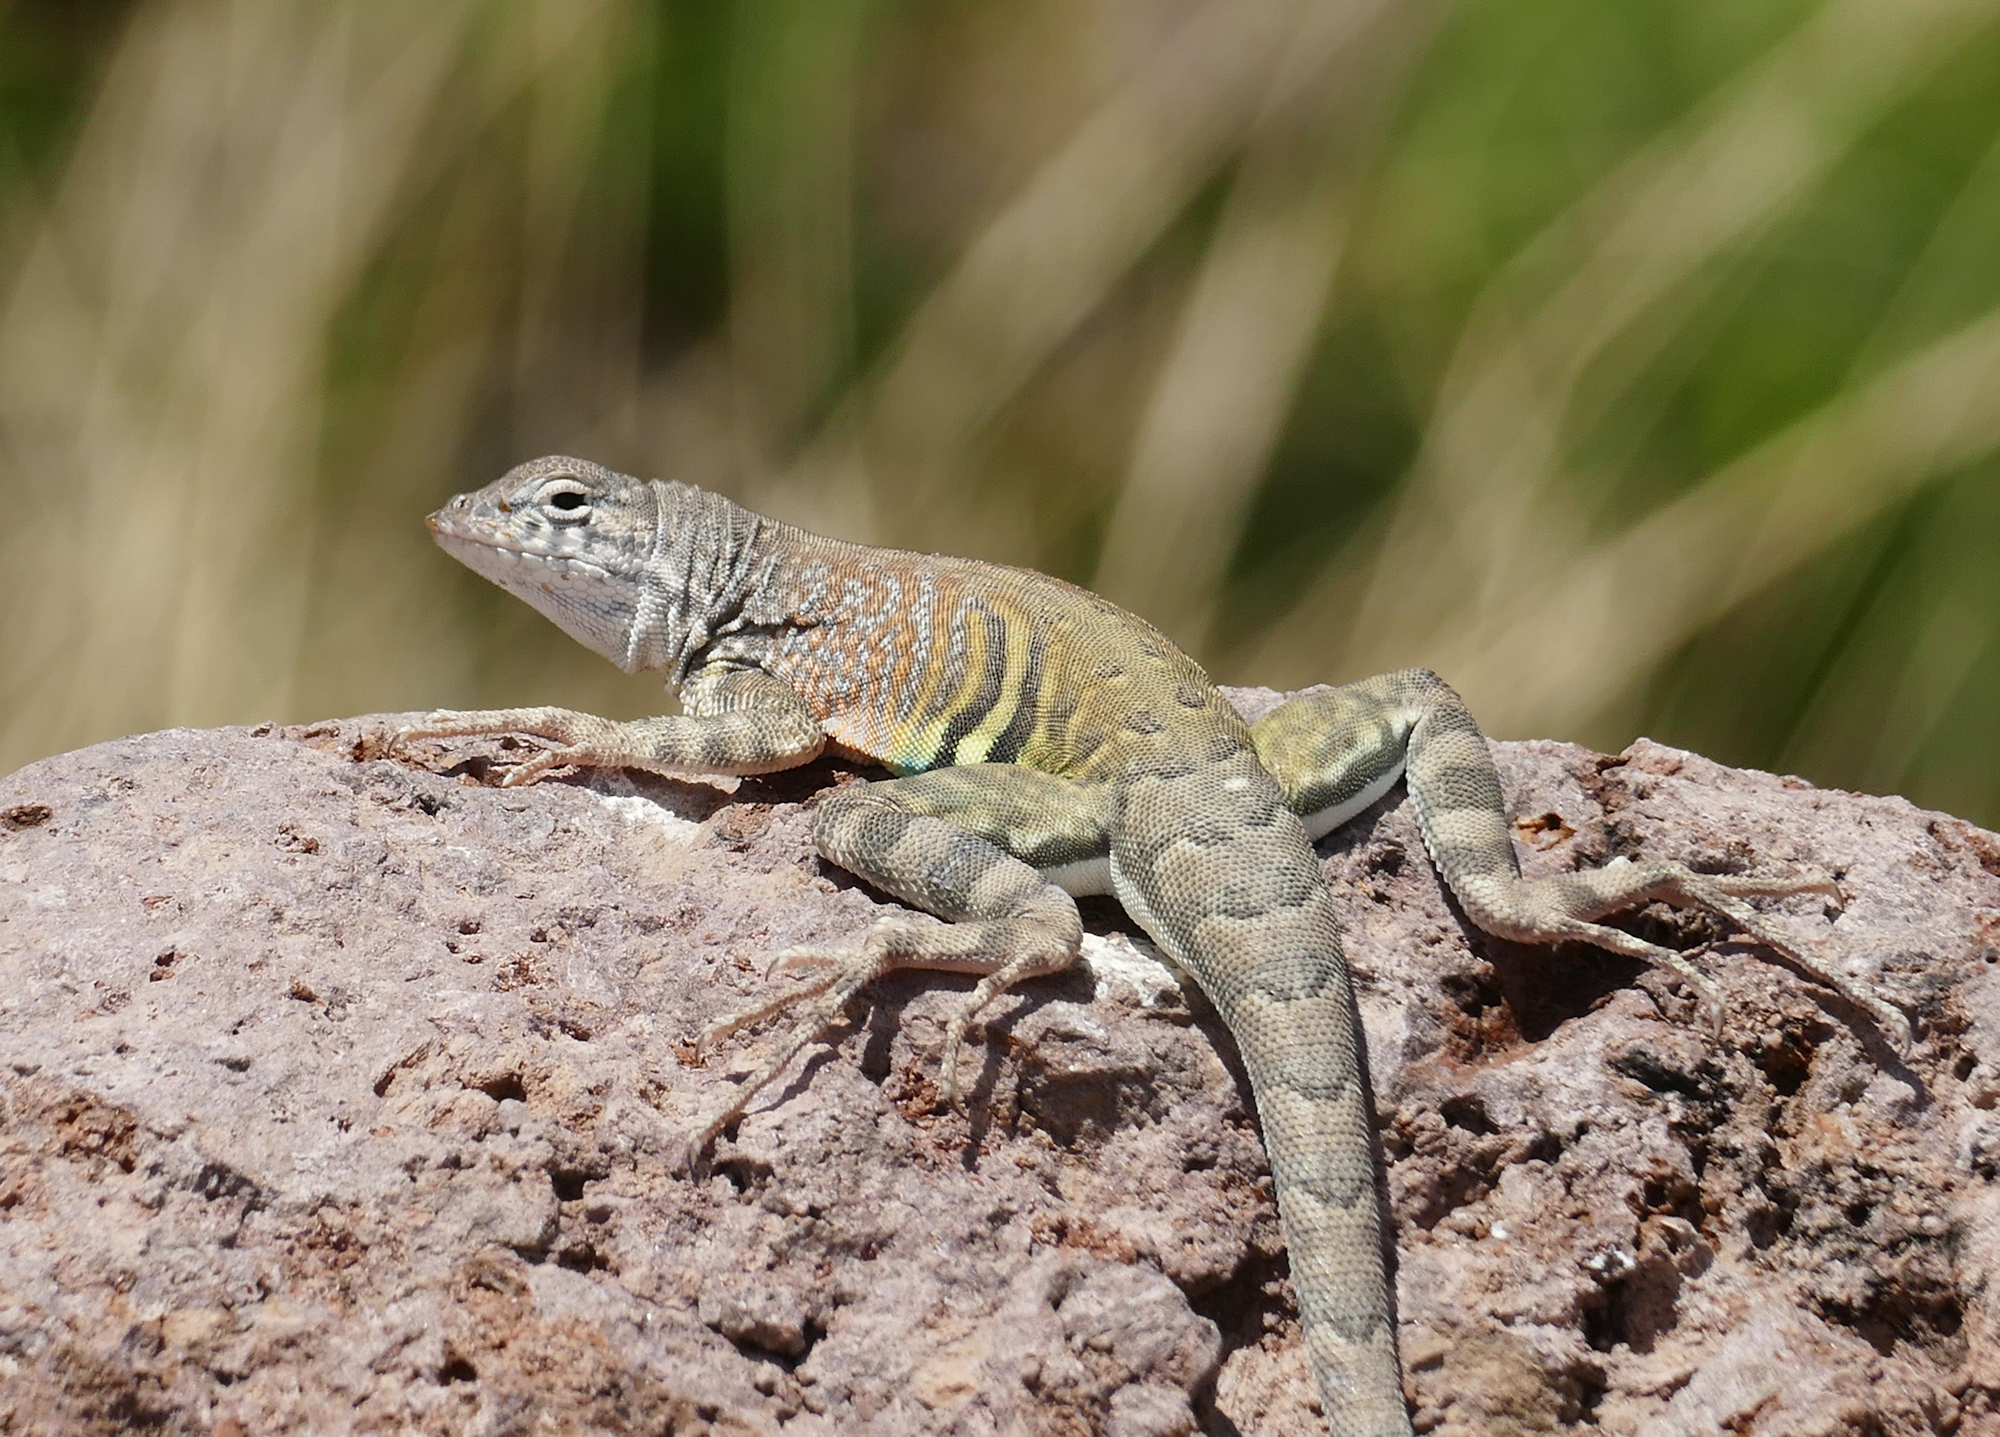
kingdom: Animalia
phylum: Chordata
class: Squamata
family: Phrynosomatidae
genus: Cophosaurus
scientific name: Cophosaurus texanus
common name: Greater earless lizard
